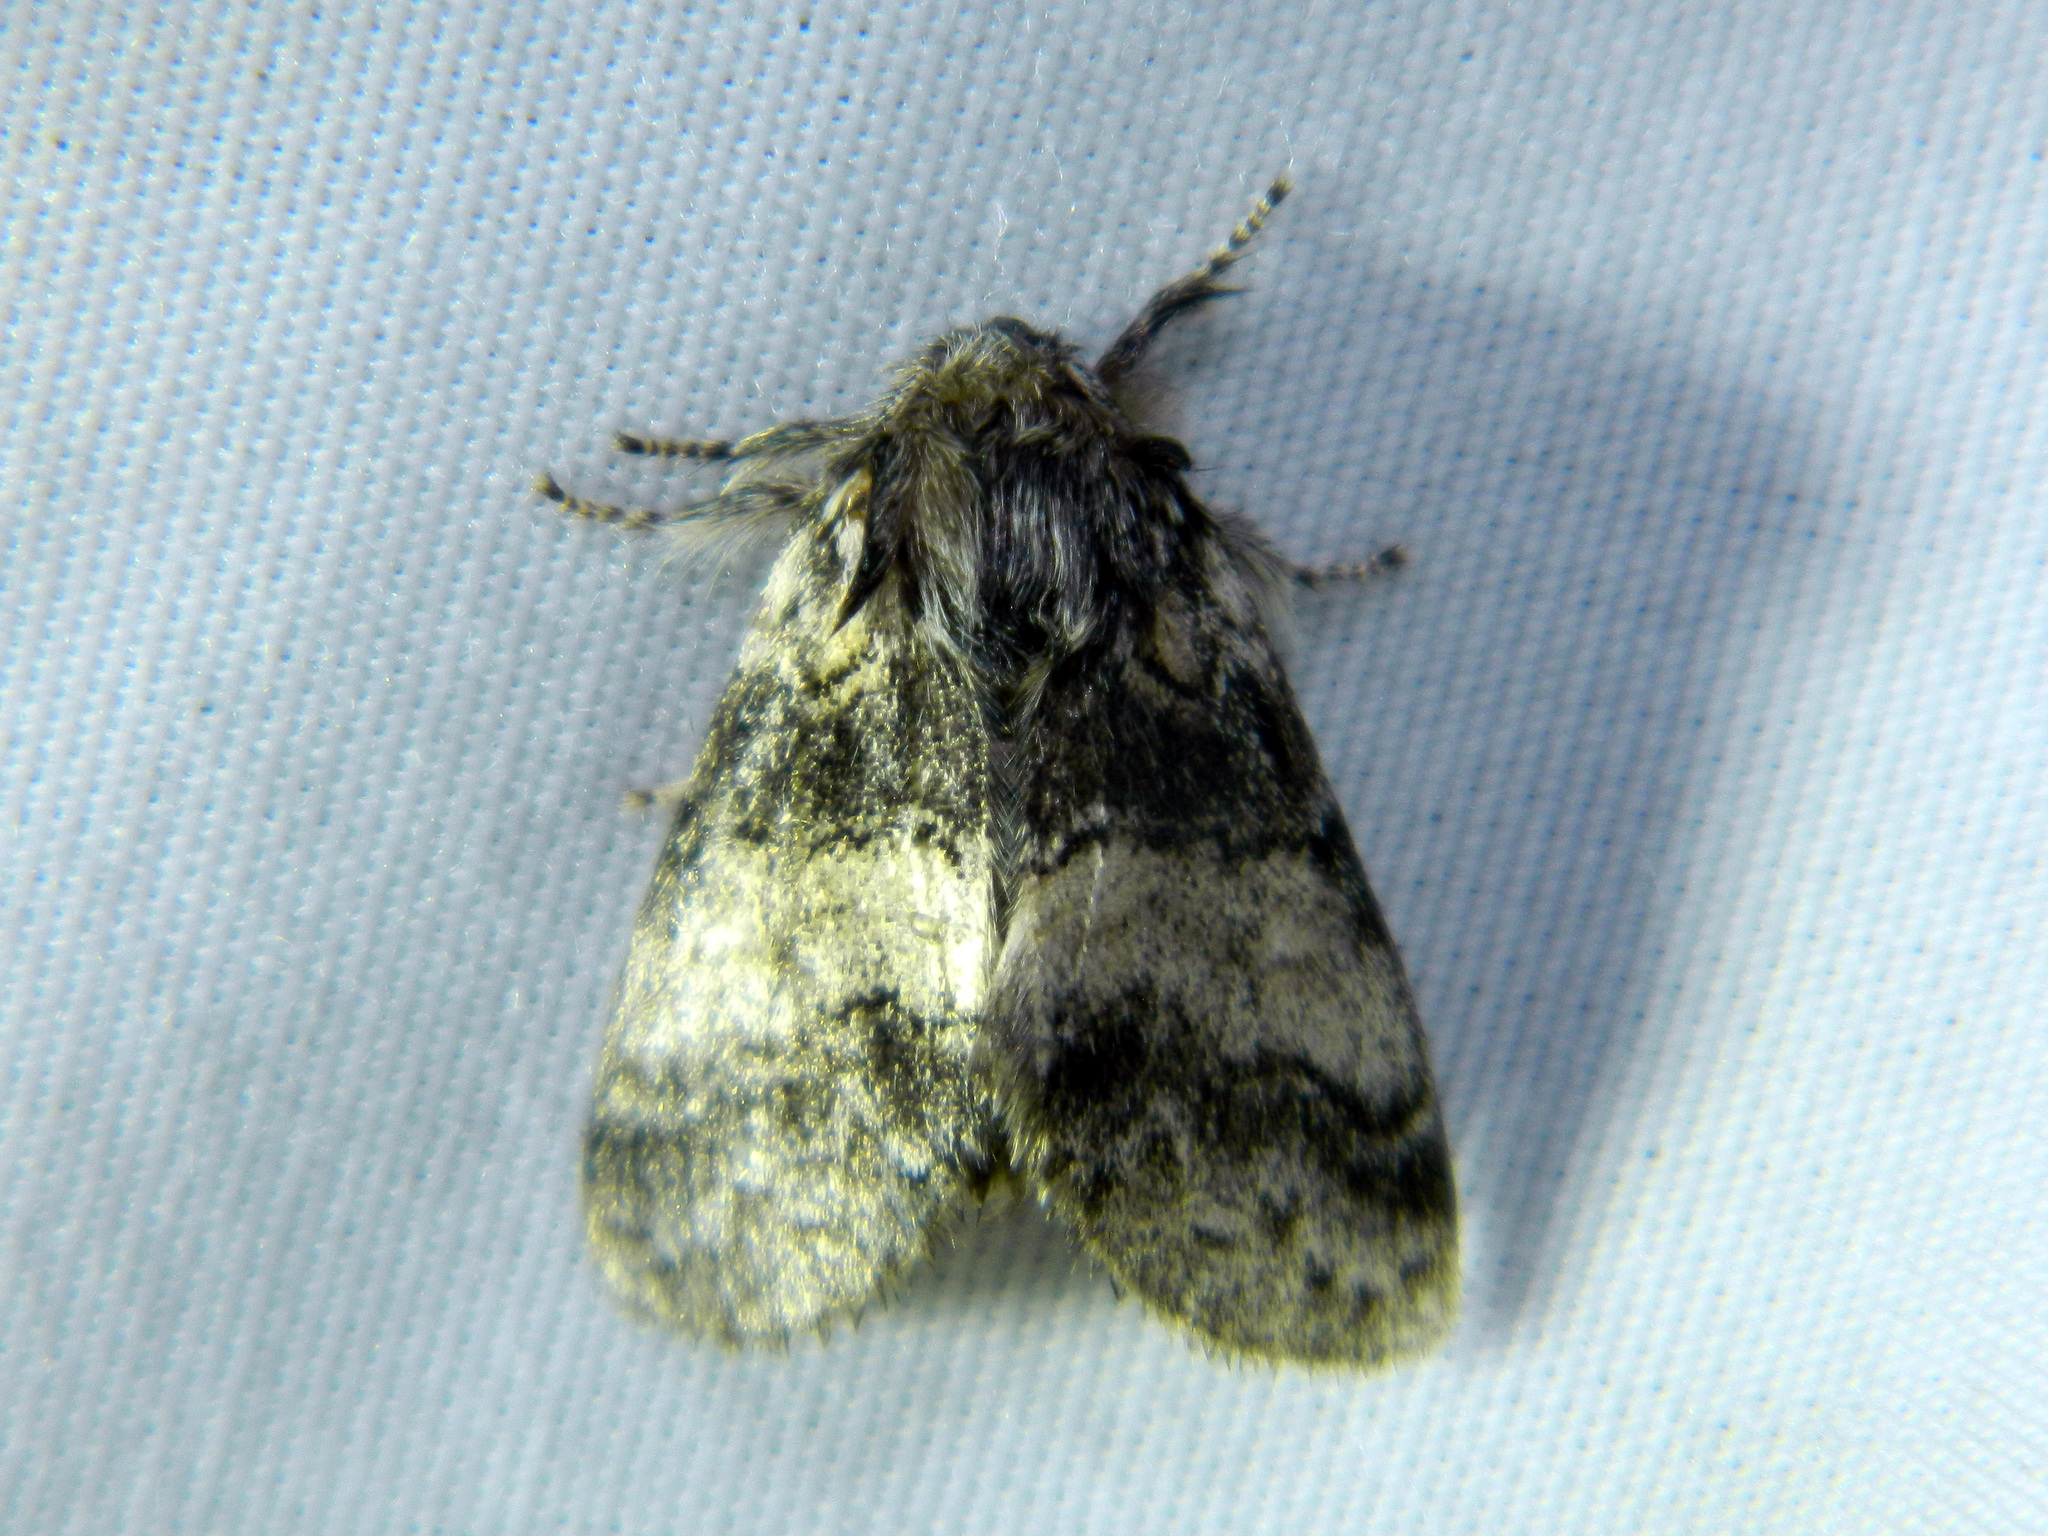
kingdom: Animalia
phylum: Arthropoda
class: Insecta
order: Lepidoptera
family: Notodontidae
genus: Gluphisia
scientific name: Gluphisia septentrionis
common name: Common gluphisia
